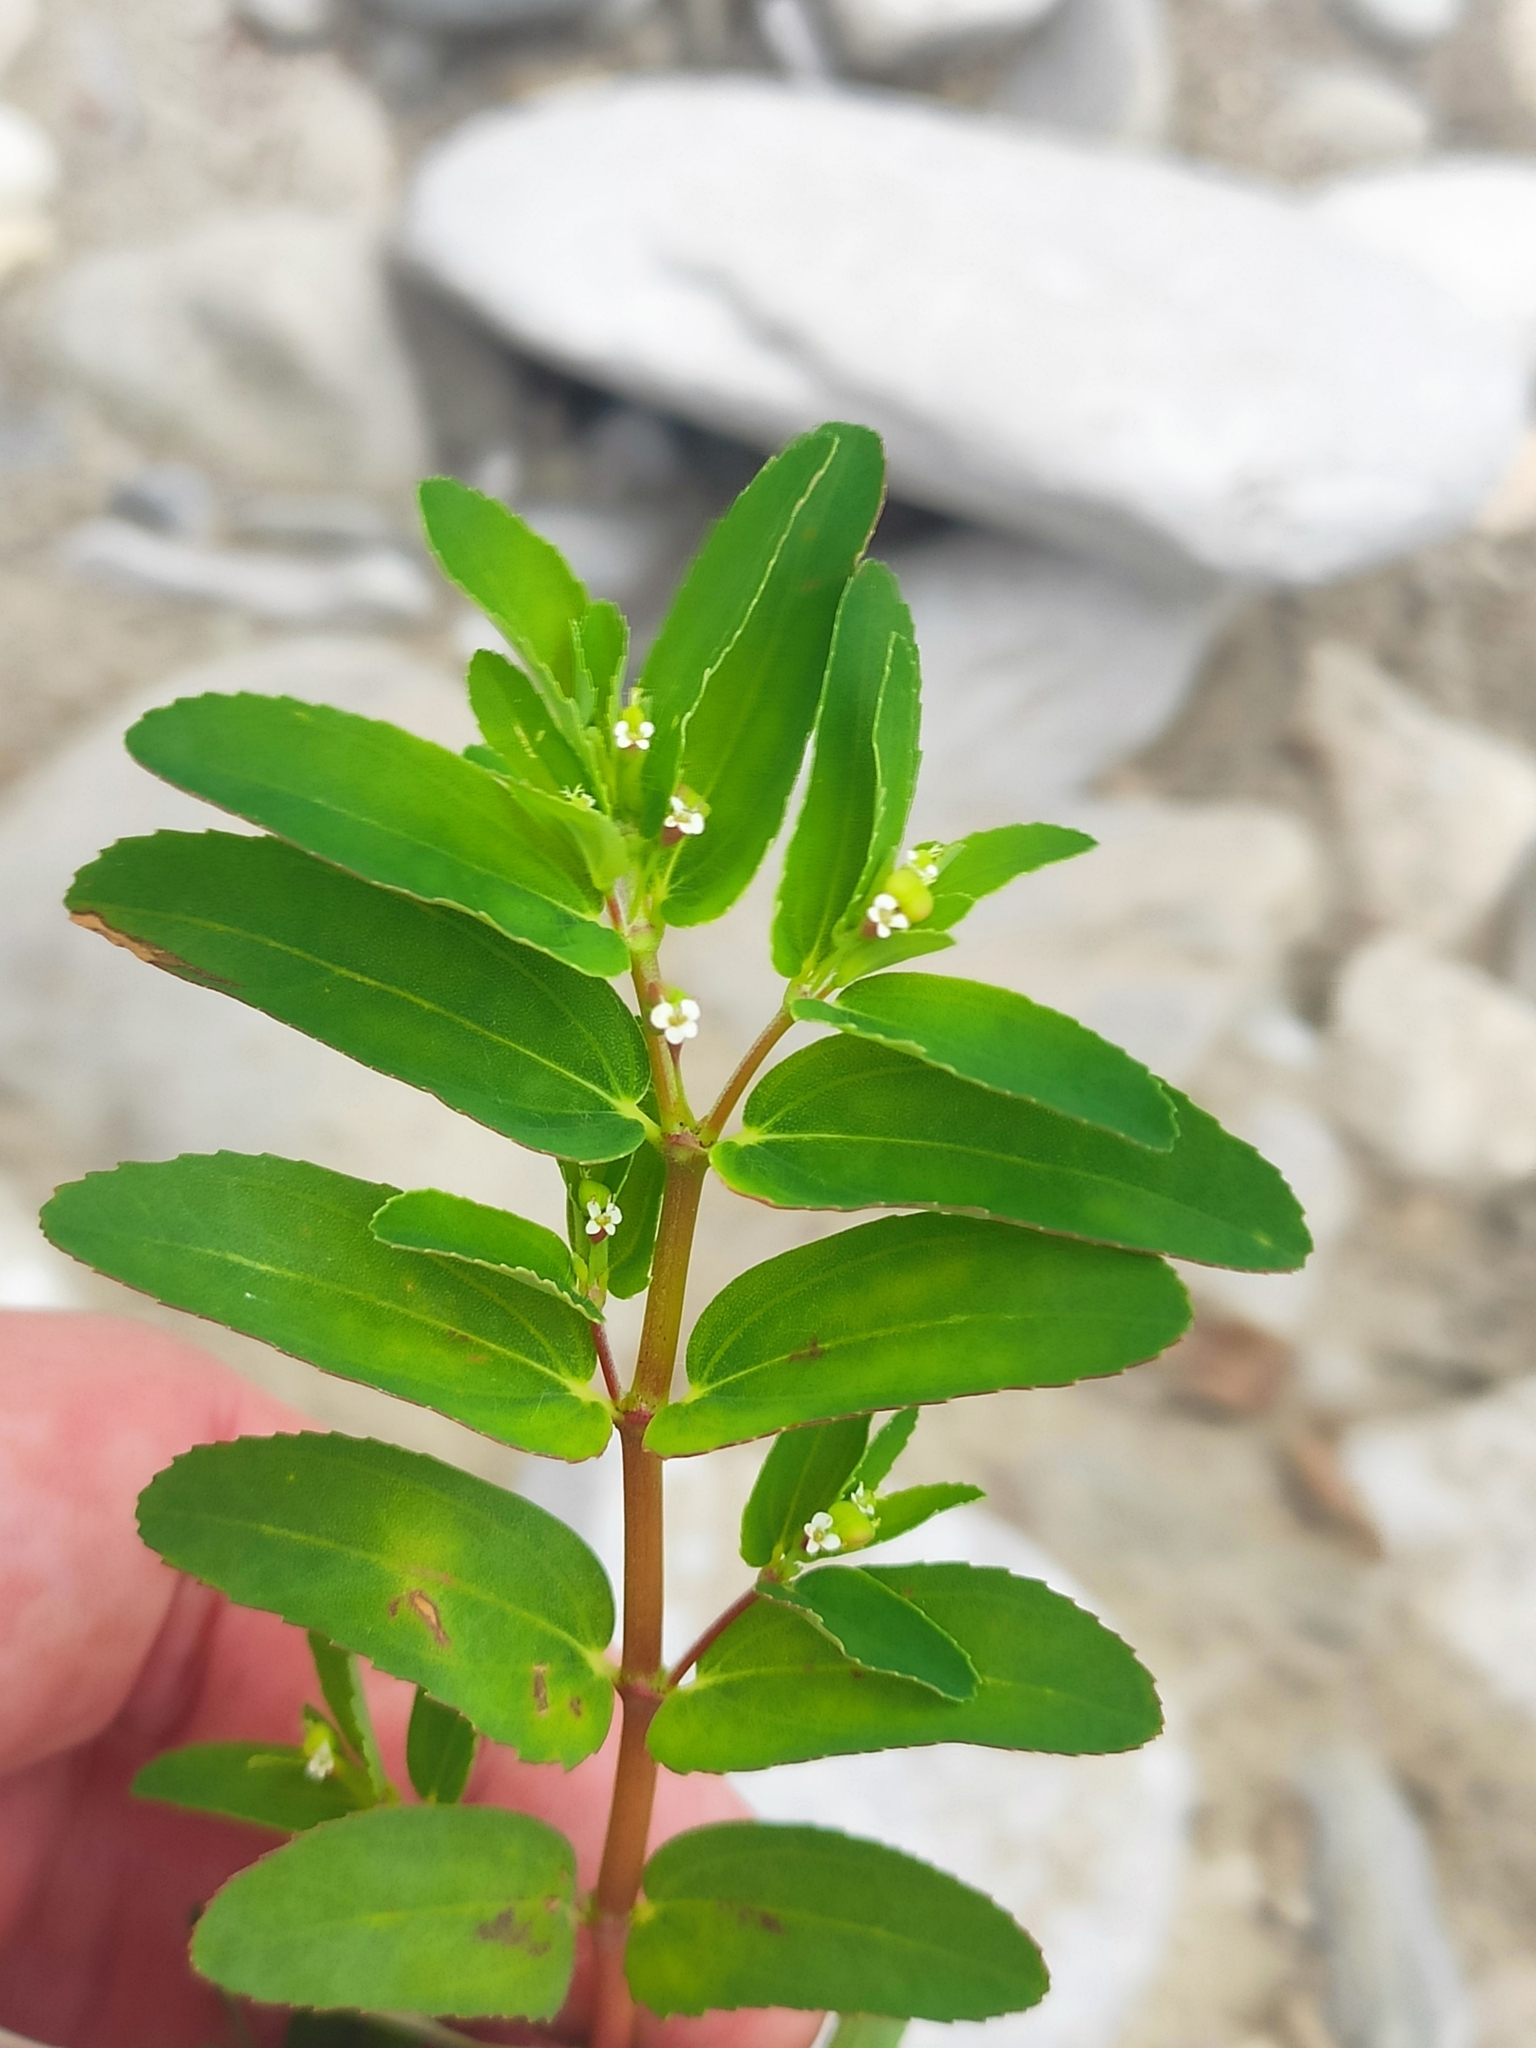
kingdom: Plantae
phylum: Tracheophyta
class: Magnoliopsida
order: Malpighiales
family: Euphorbiaceae
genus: Euphorbia
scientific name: Euphorbia nutans
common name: Eyebane
